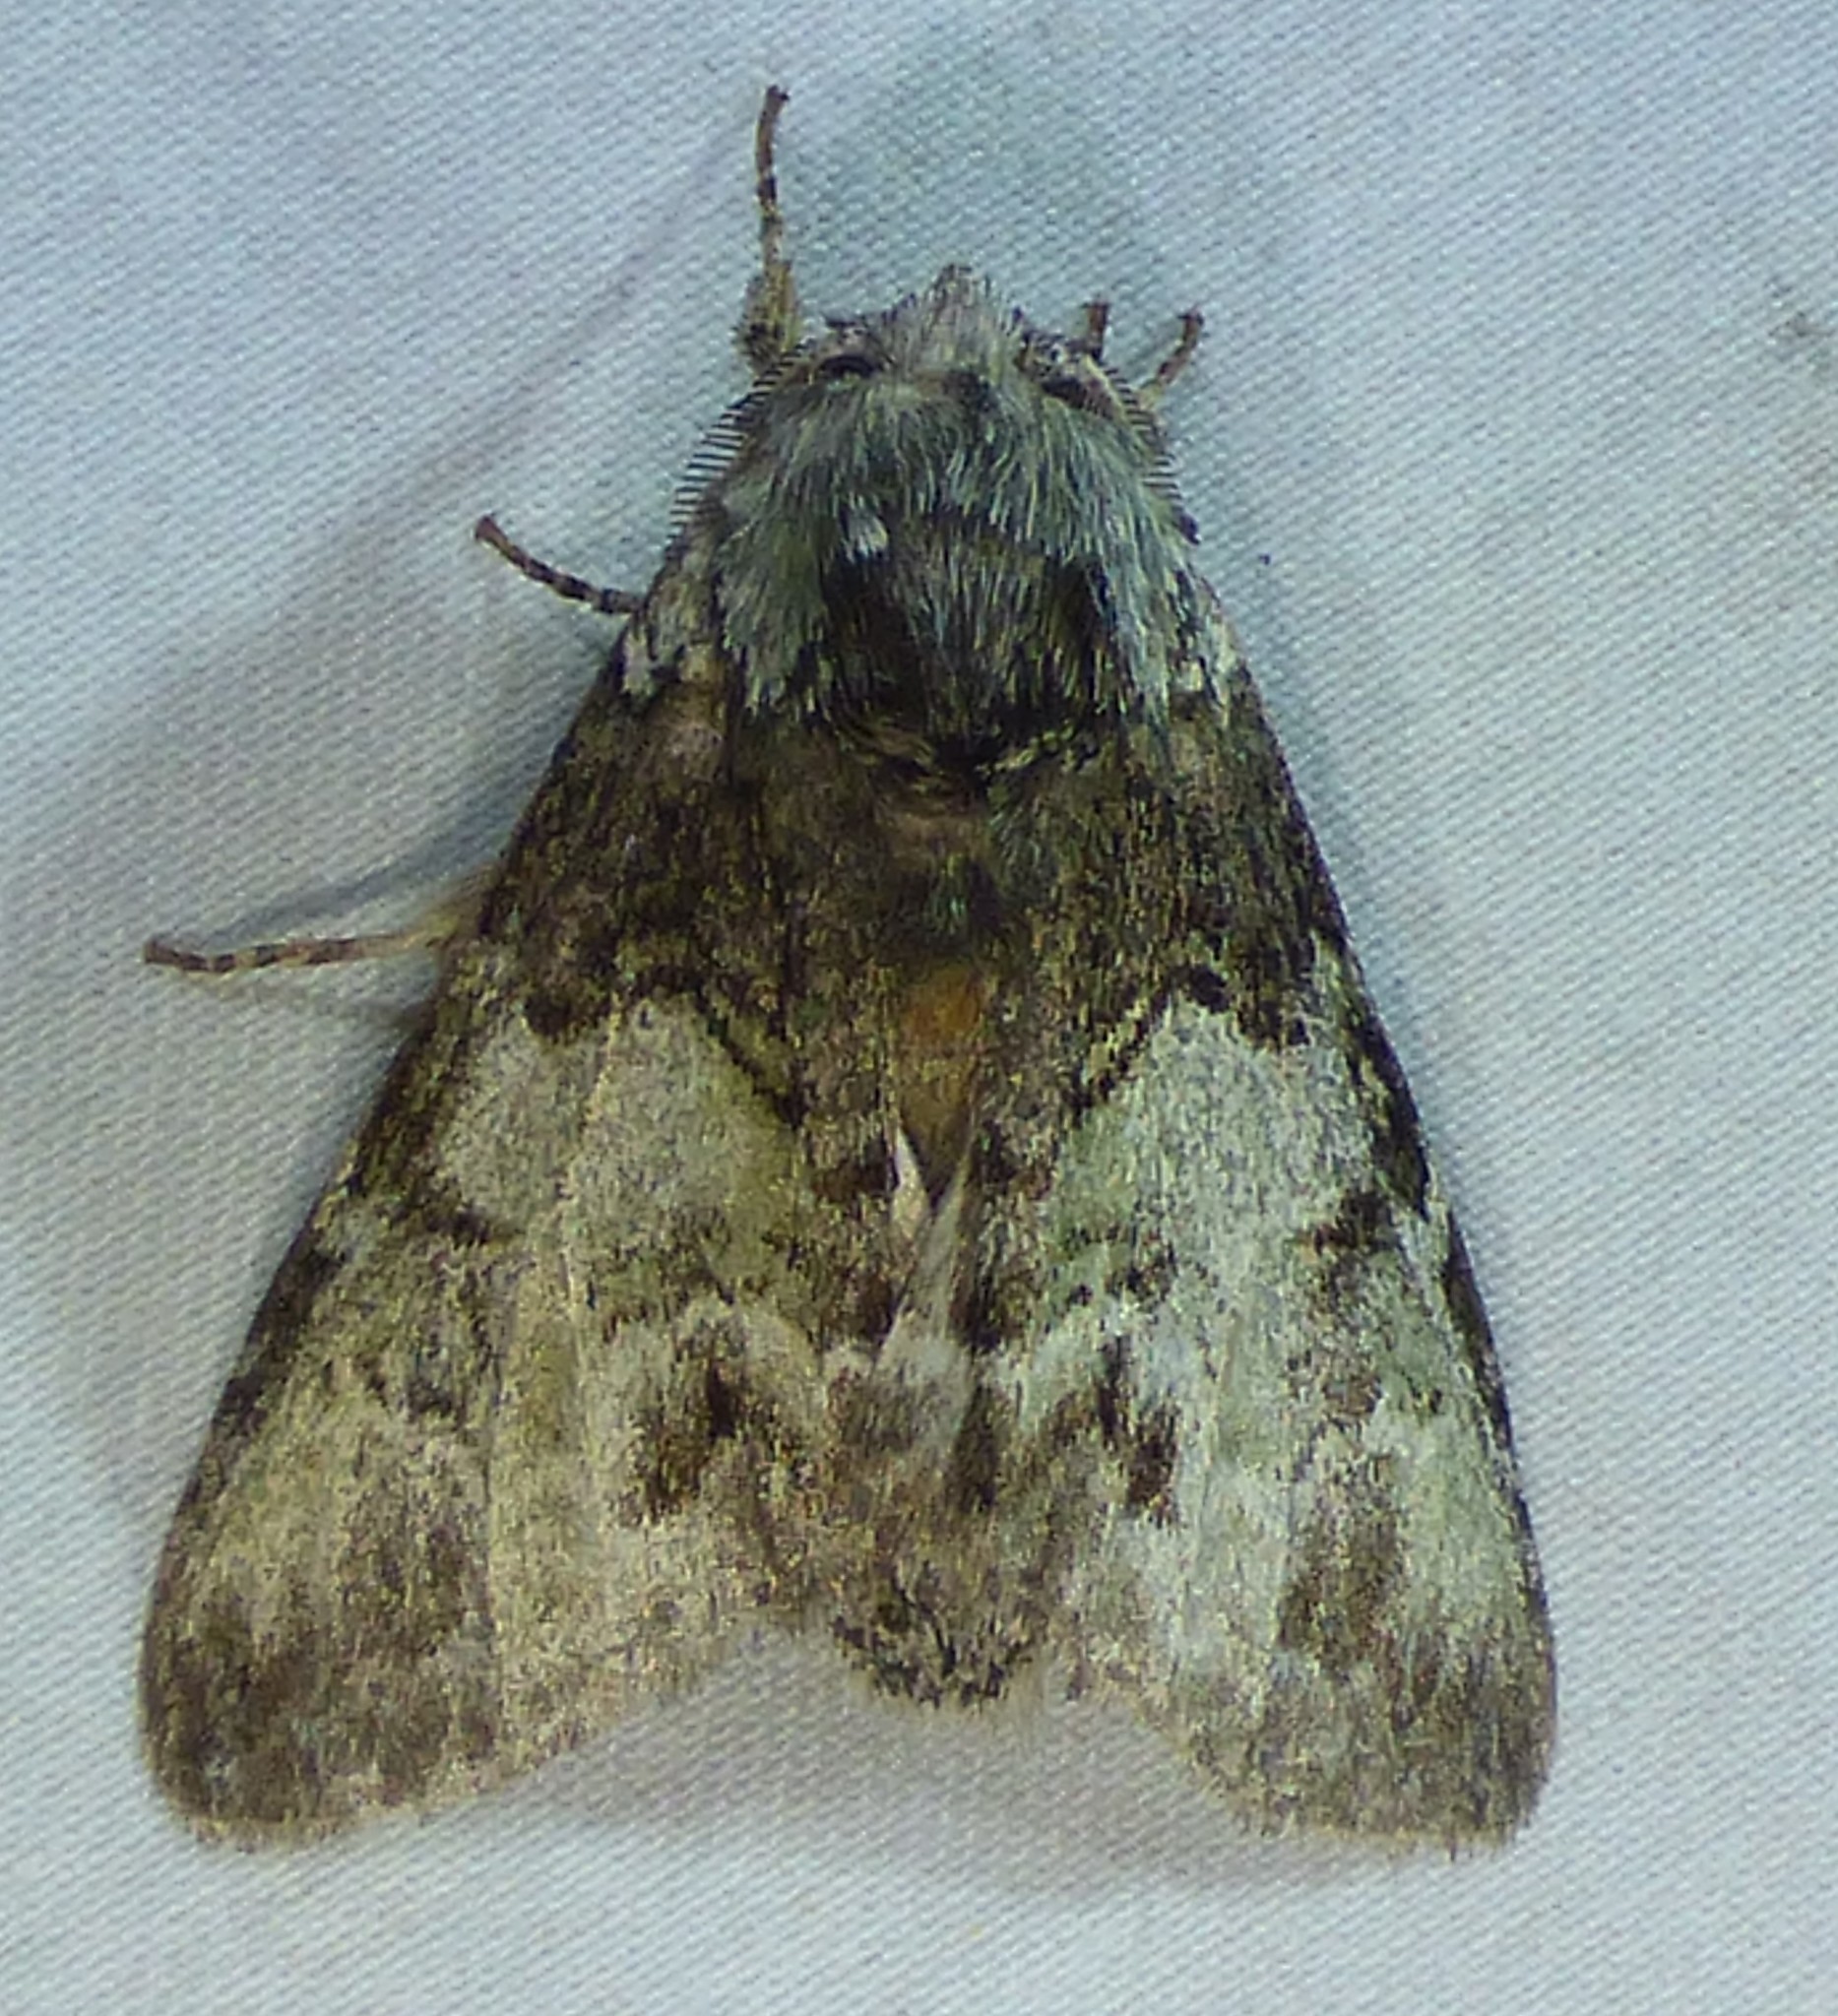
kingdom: Animalia
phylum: Arthropoda
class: Insecta
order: Lepidoptera
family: Notodontidae
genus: Macrurocampa
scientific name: Macrurocampa marthesia
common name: Mottled prominent
